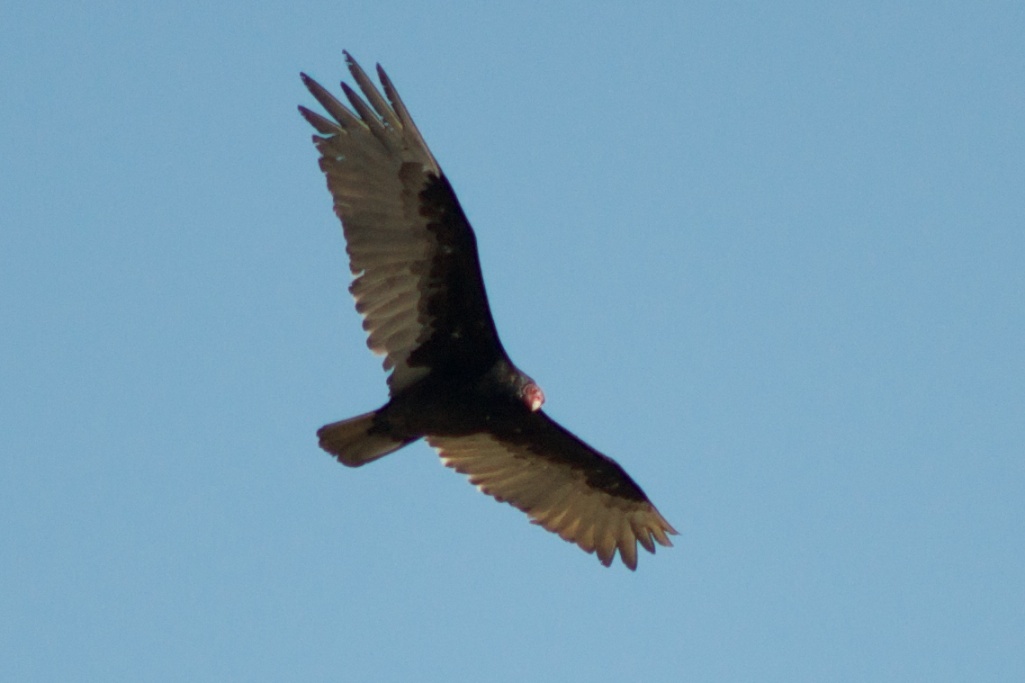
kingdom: Animalia
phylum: Chordata
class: Aves
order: Accipitriformes
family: Cathartidae
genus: Cathartes
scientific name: Cathartes aura
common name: Turkey vulture
